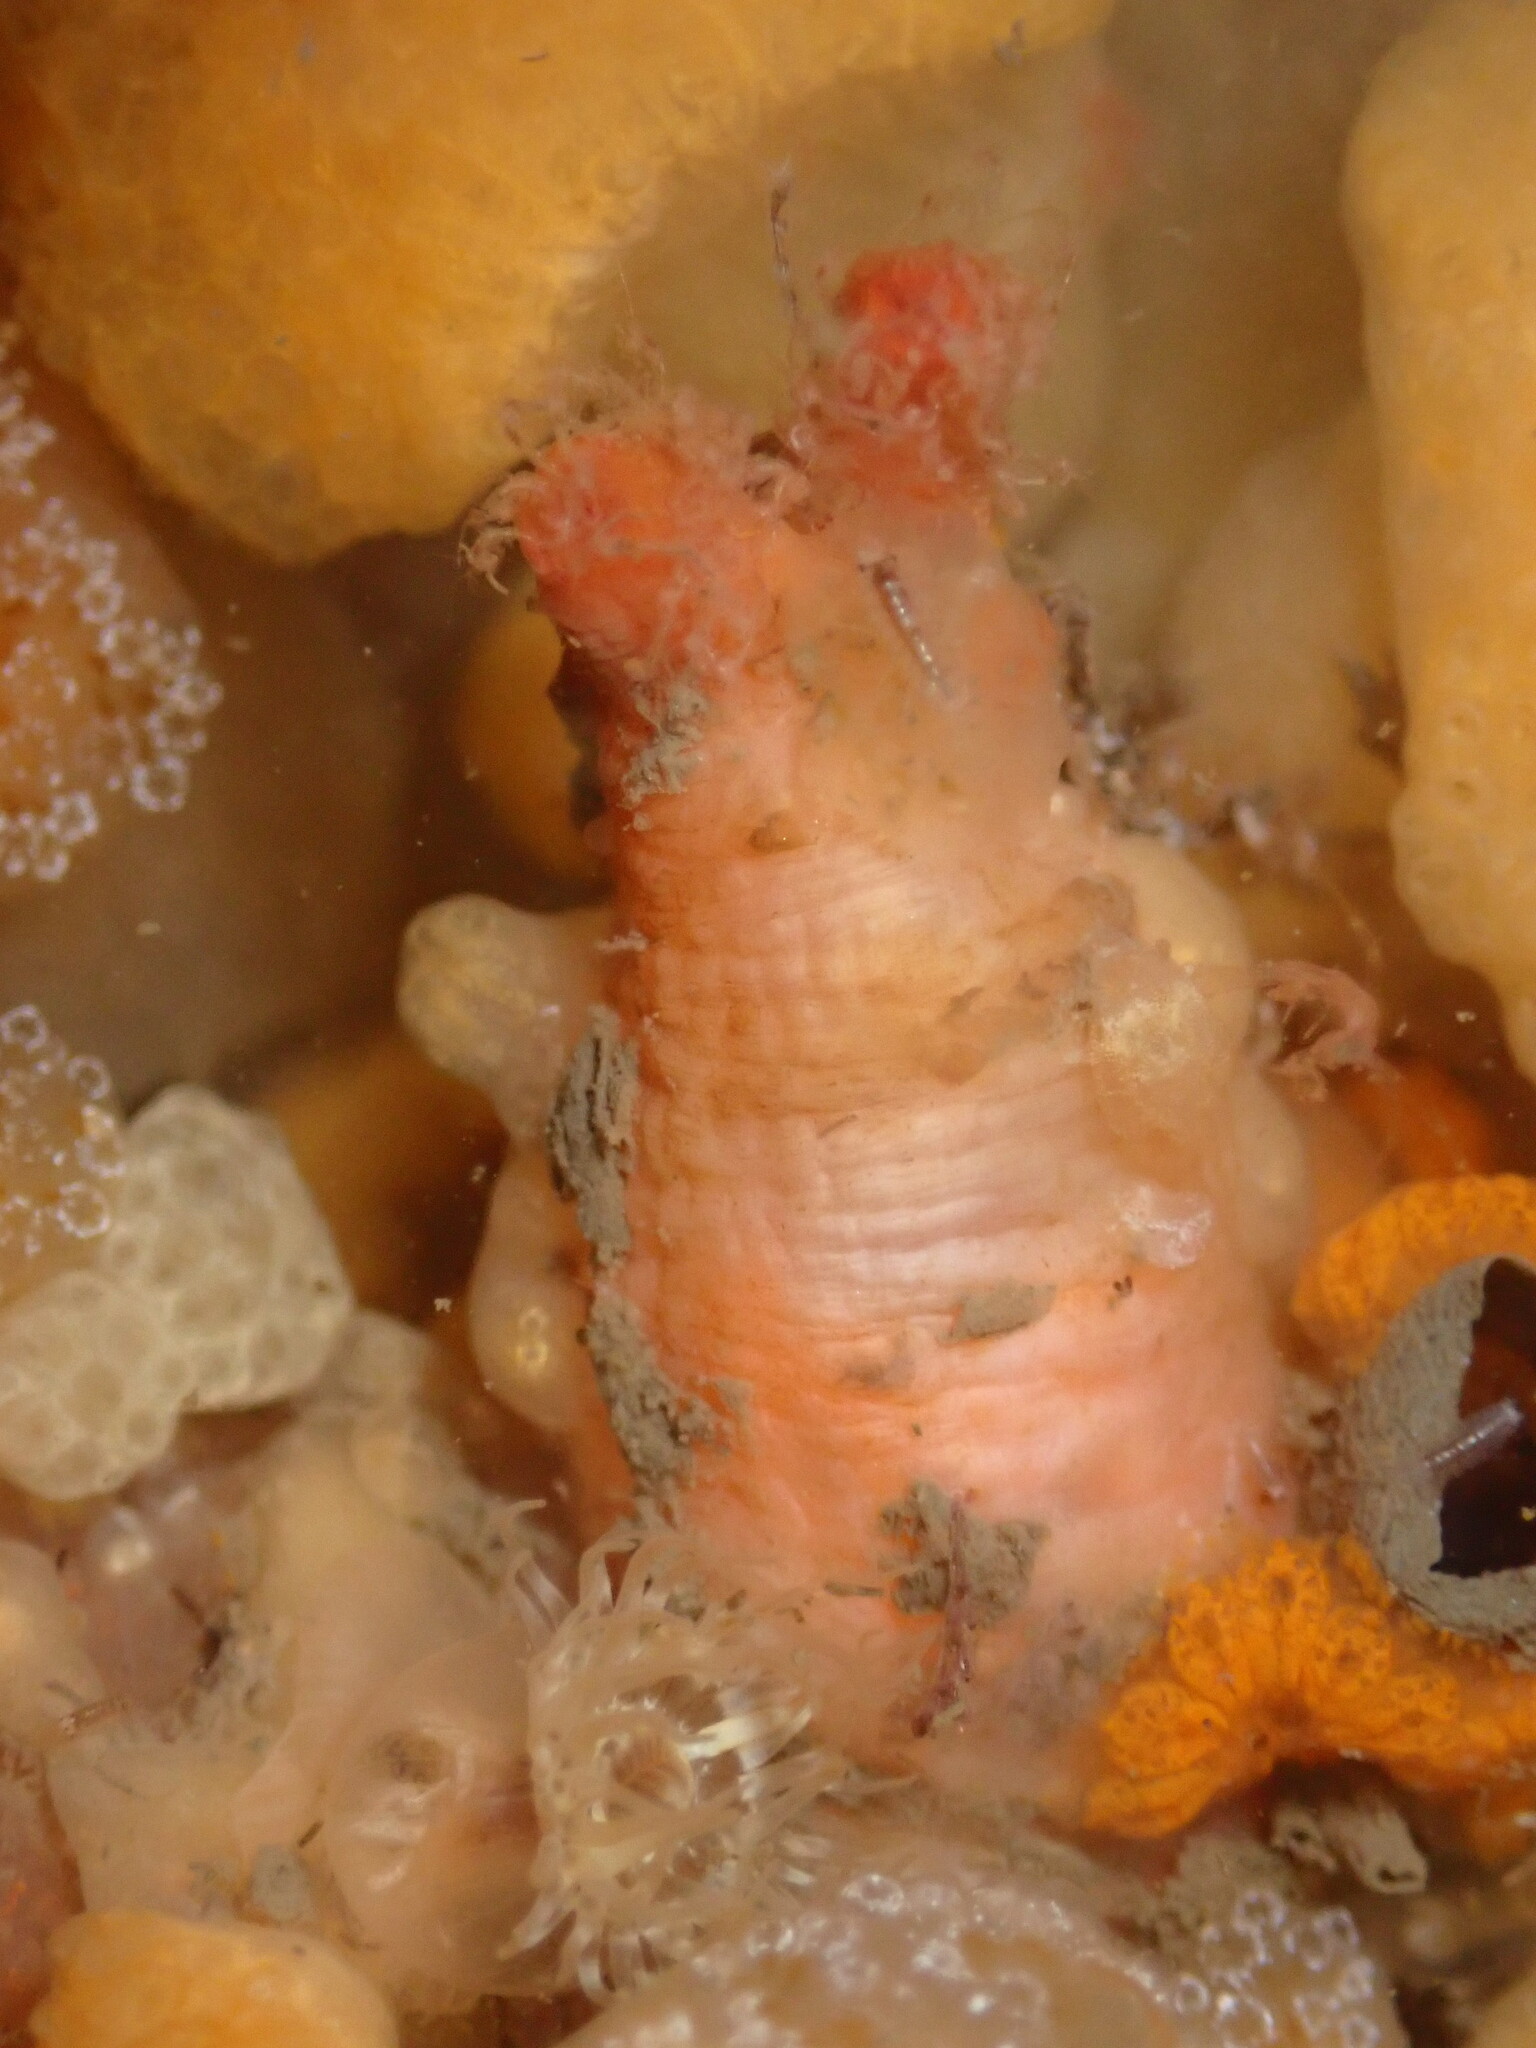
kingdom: Animalia
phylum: Chordata
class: Ascidiacea
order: Stolidobranchia
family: Styelidae
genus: Styela
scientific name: Styela gibbsii
